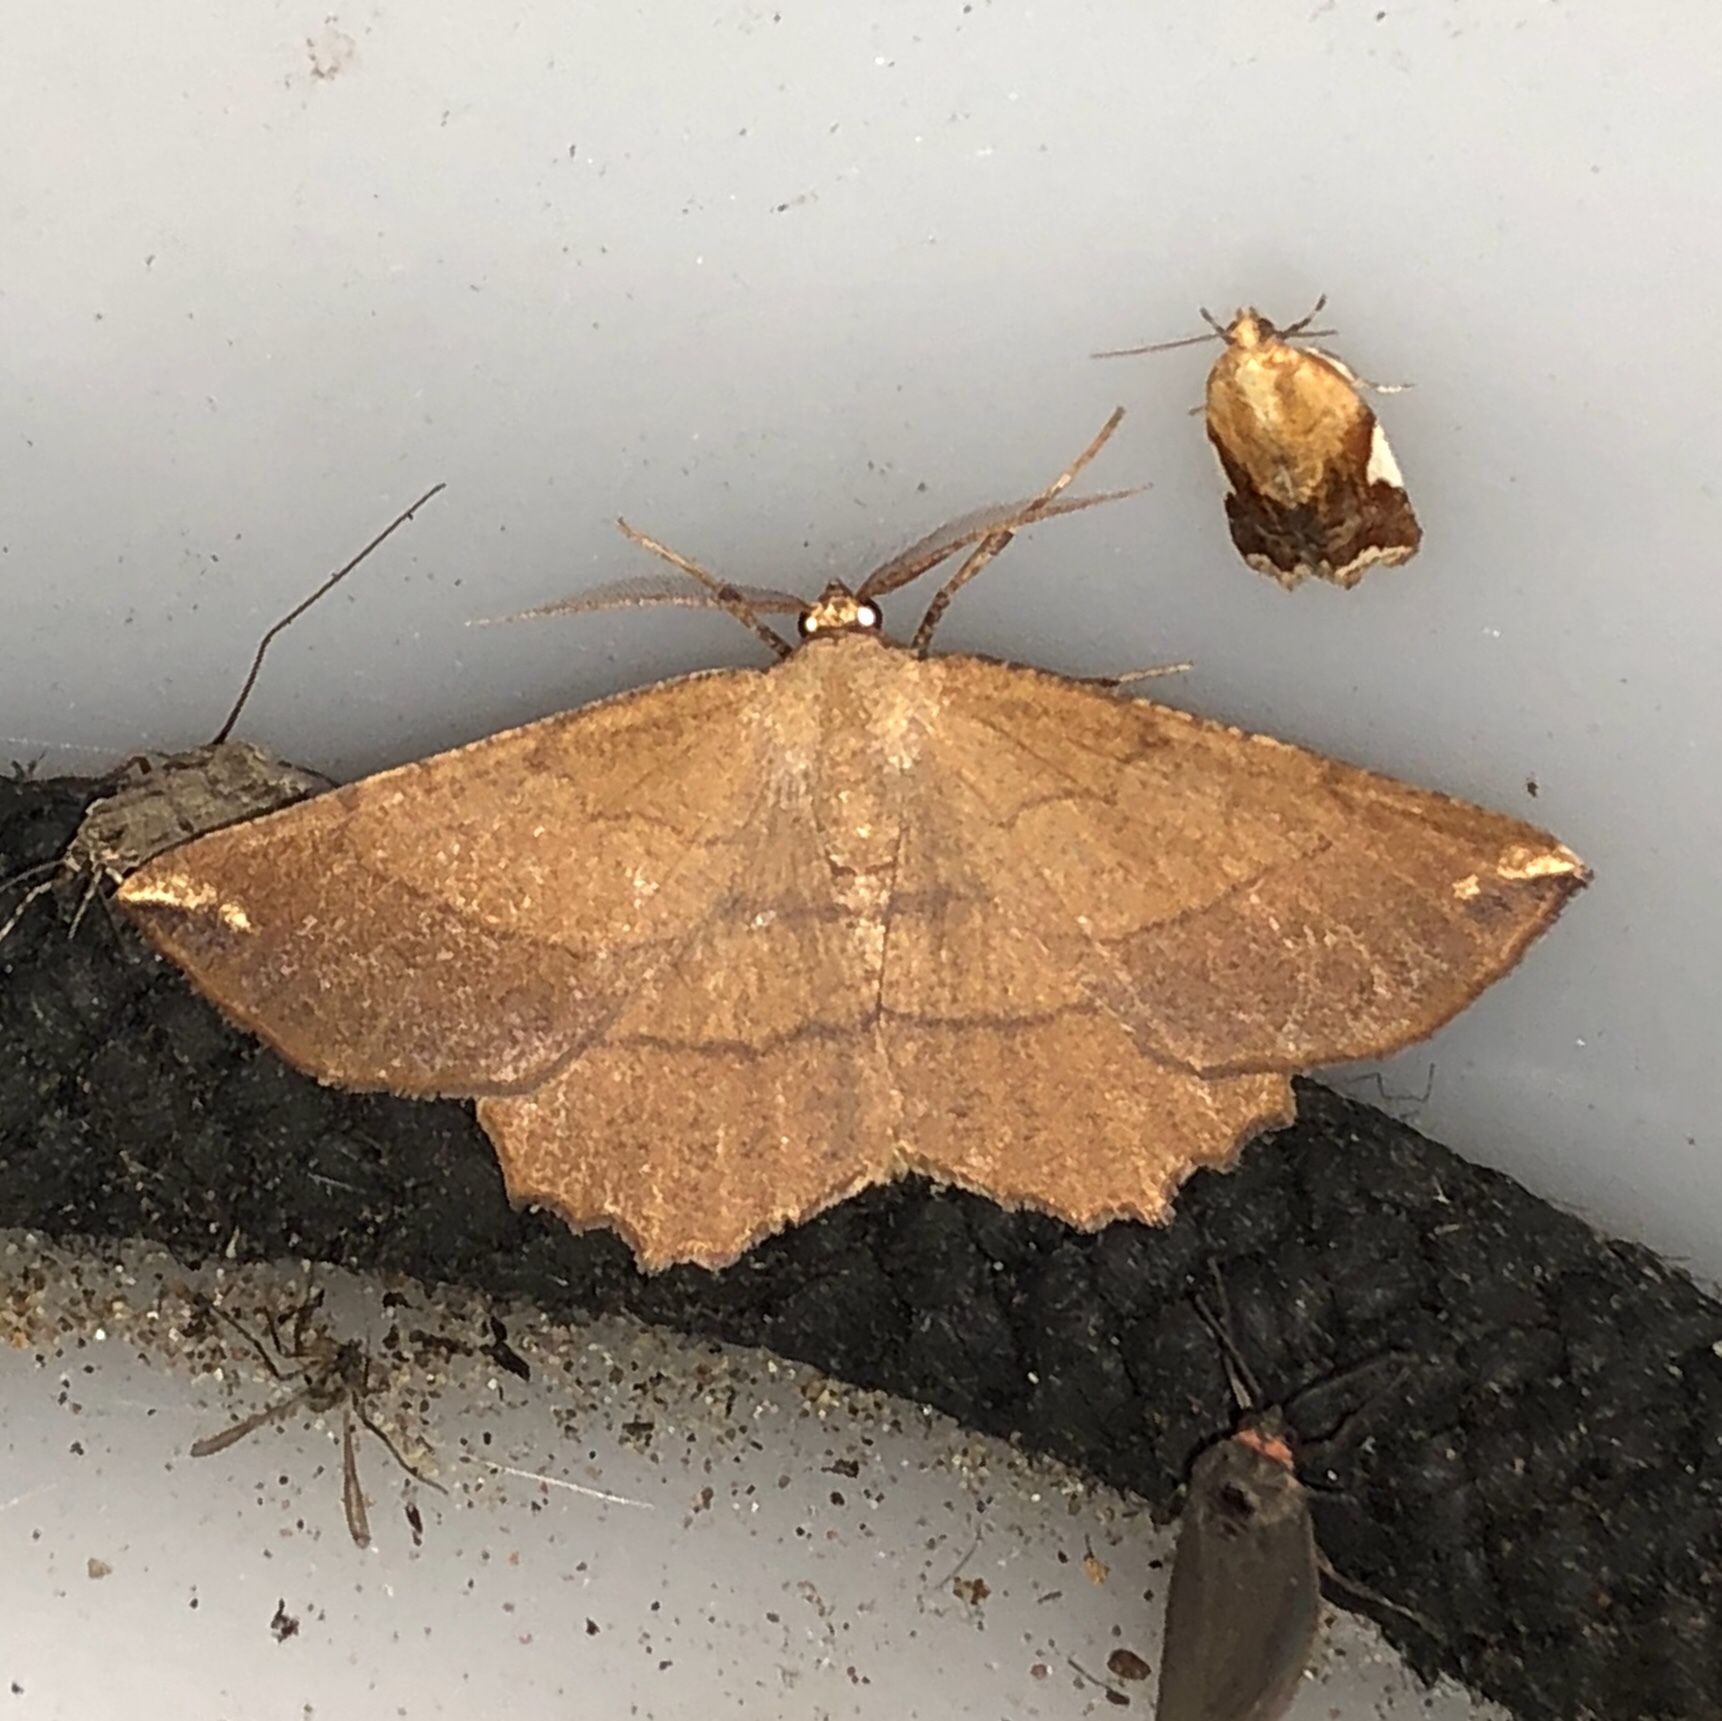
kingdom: Animalia
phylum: Arthropoda
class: Insecta
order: Lepidoptera
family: Geometridae
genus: Euchlaena
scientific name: Euchlaena madusaria
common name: Scrub euchlaena moth
